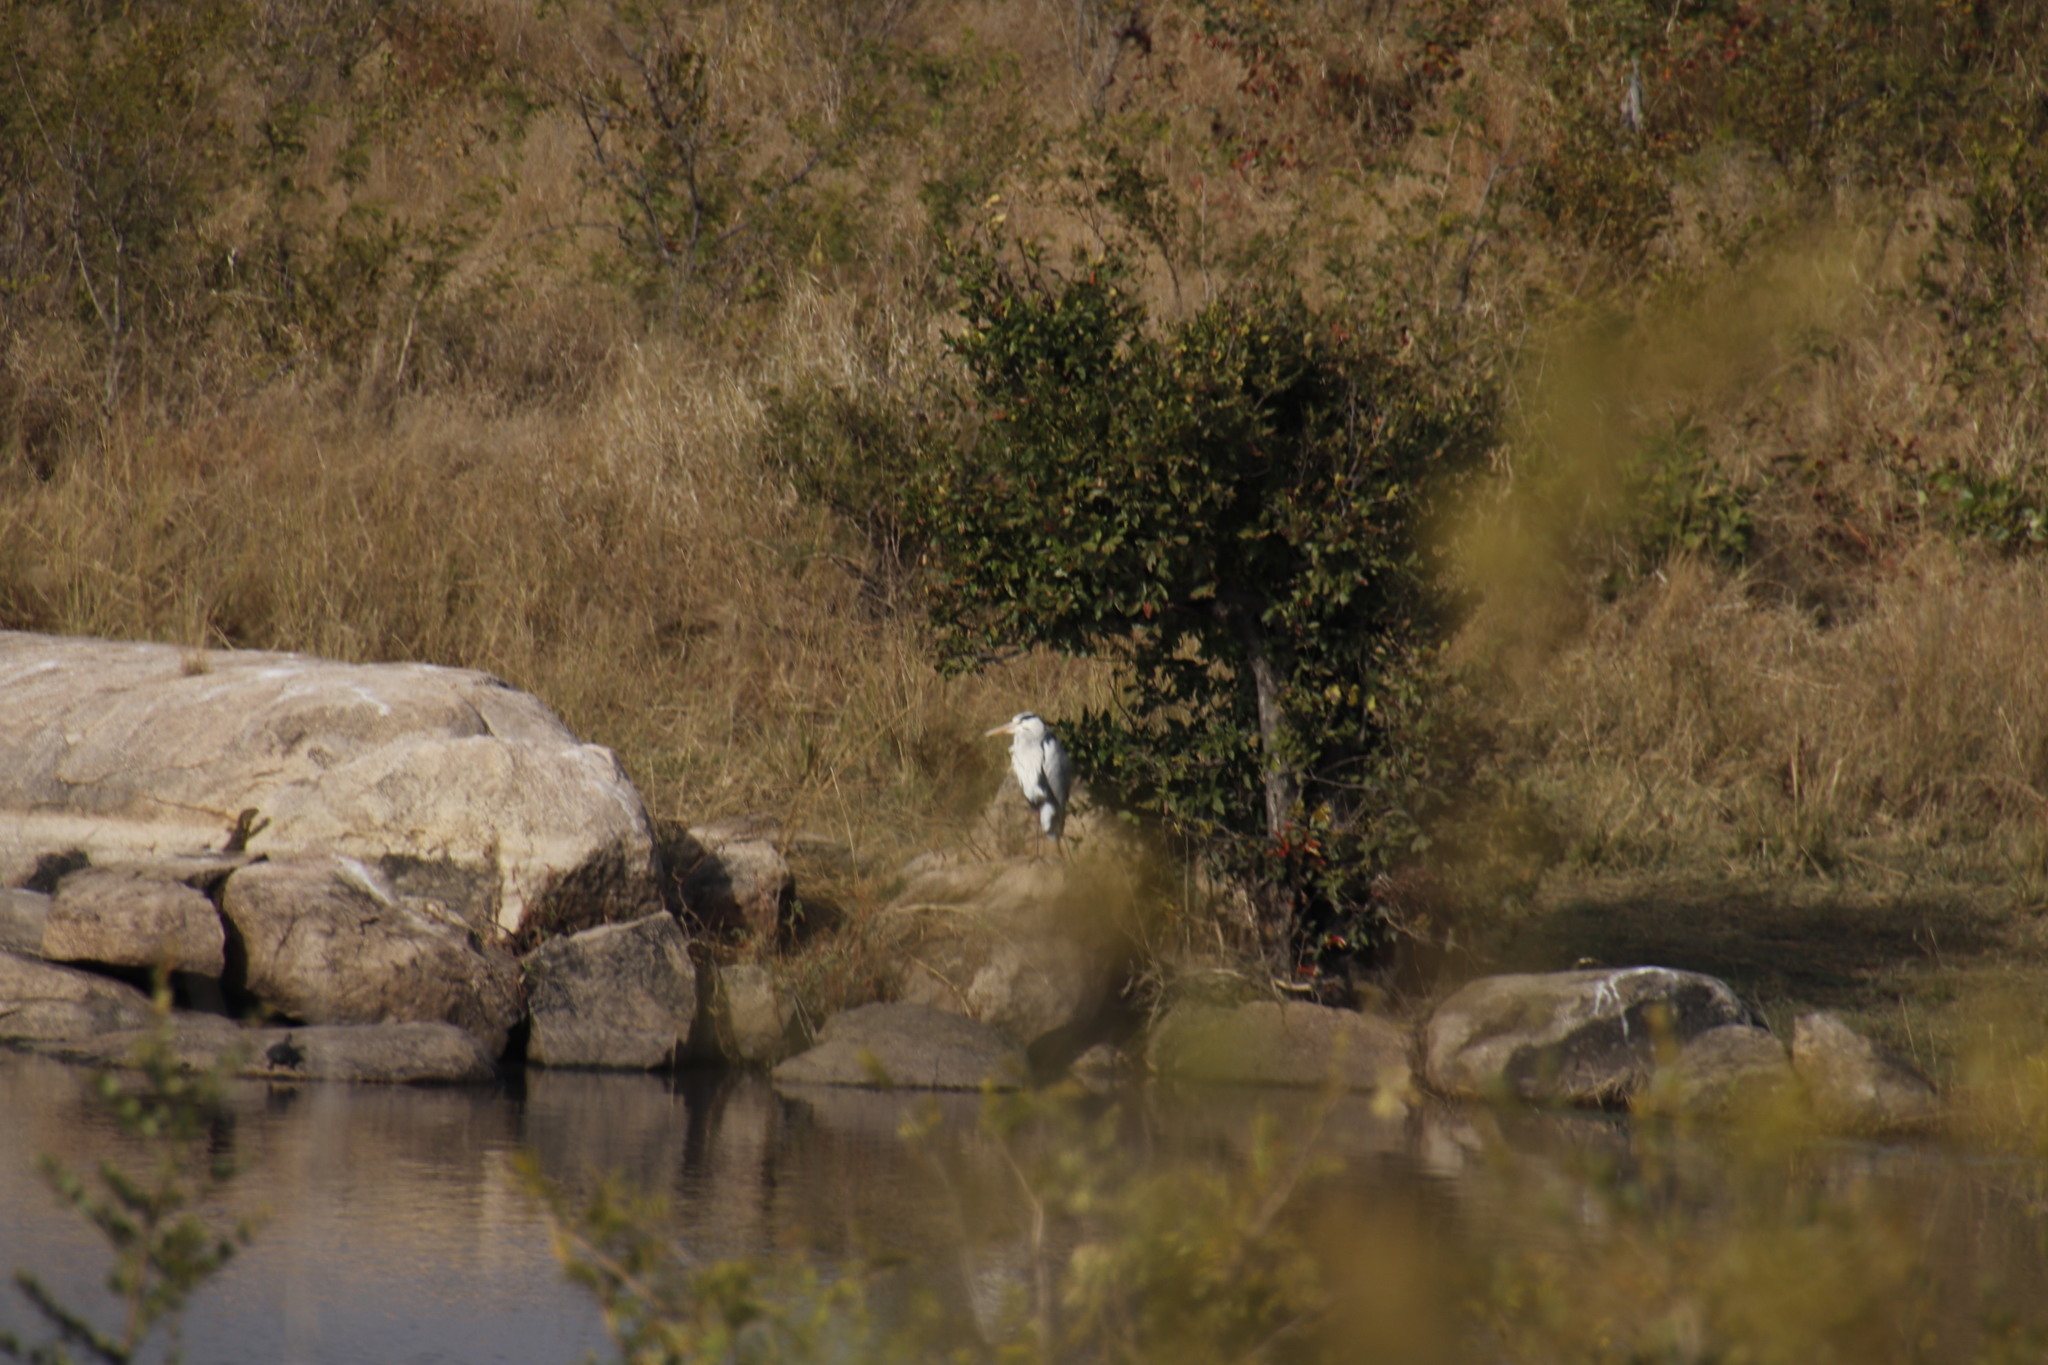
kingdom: Animalia
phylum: Chordata
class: Aves
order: Pelecaniformes
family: Ardeidae
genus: Ardea
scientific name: Ardea cinerea
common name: Grey heron
